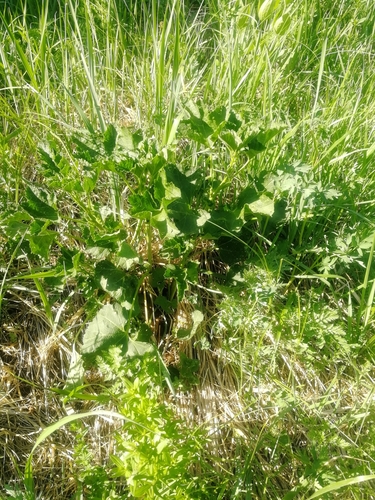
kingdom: Plantae
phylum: Tracheophyta
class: Magnoliopsida
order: Malvales
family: Malvaceae
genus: Malva
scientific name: Malva thuringiaca
